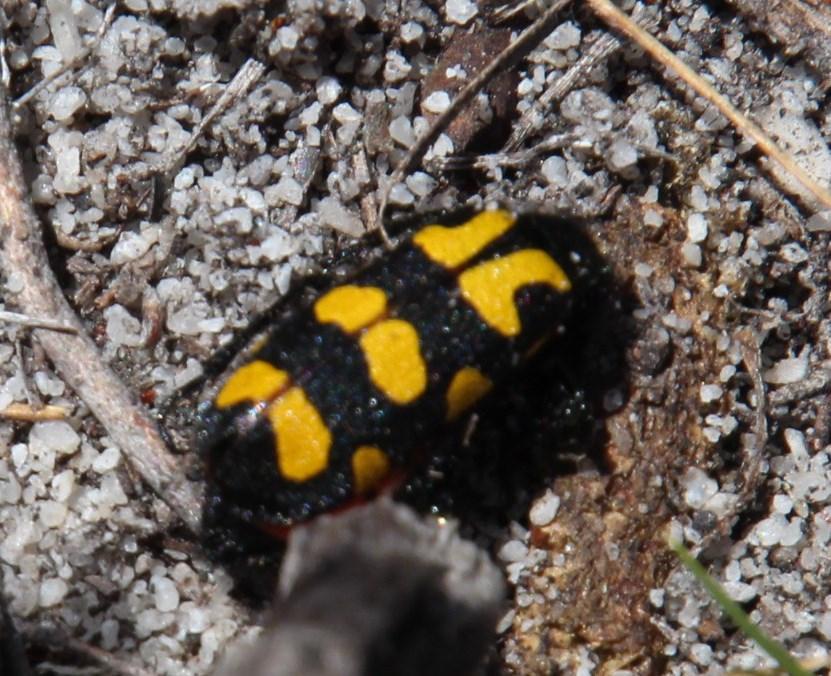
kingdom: Animalia
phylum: Arthropoda
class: Insecta
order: Coleoptera
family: Meloidae
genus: Ceroctis
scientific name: Ceroctis capensis
